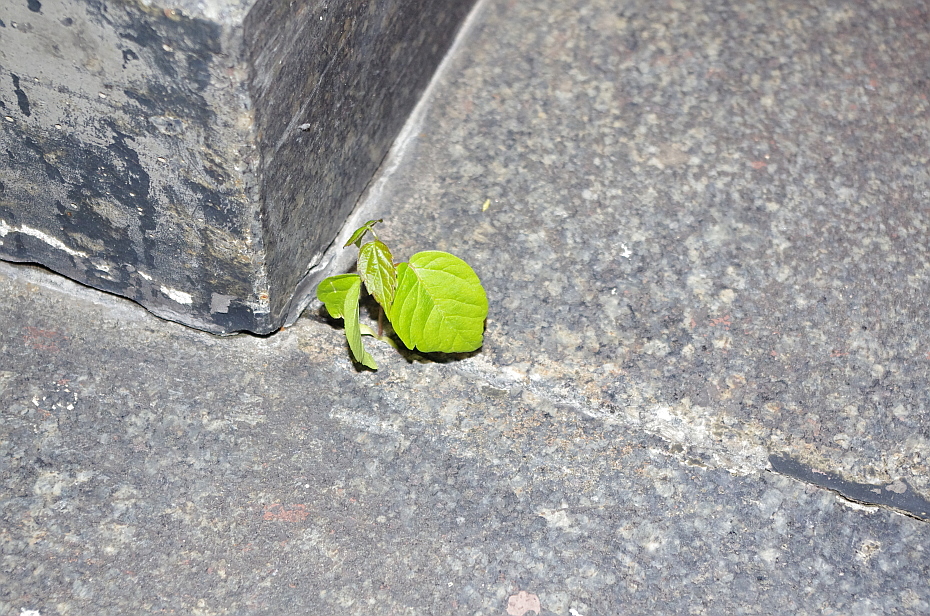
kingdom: Plantae
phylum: Tracheophyta
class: Magnoliopsida
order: Sapindales
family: Sapindaceae
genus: Acer
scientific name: Acer negundo
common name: Ashleaf maple
